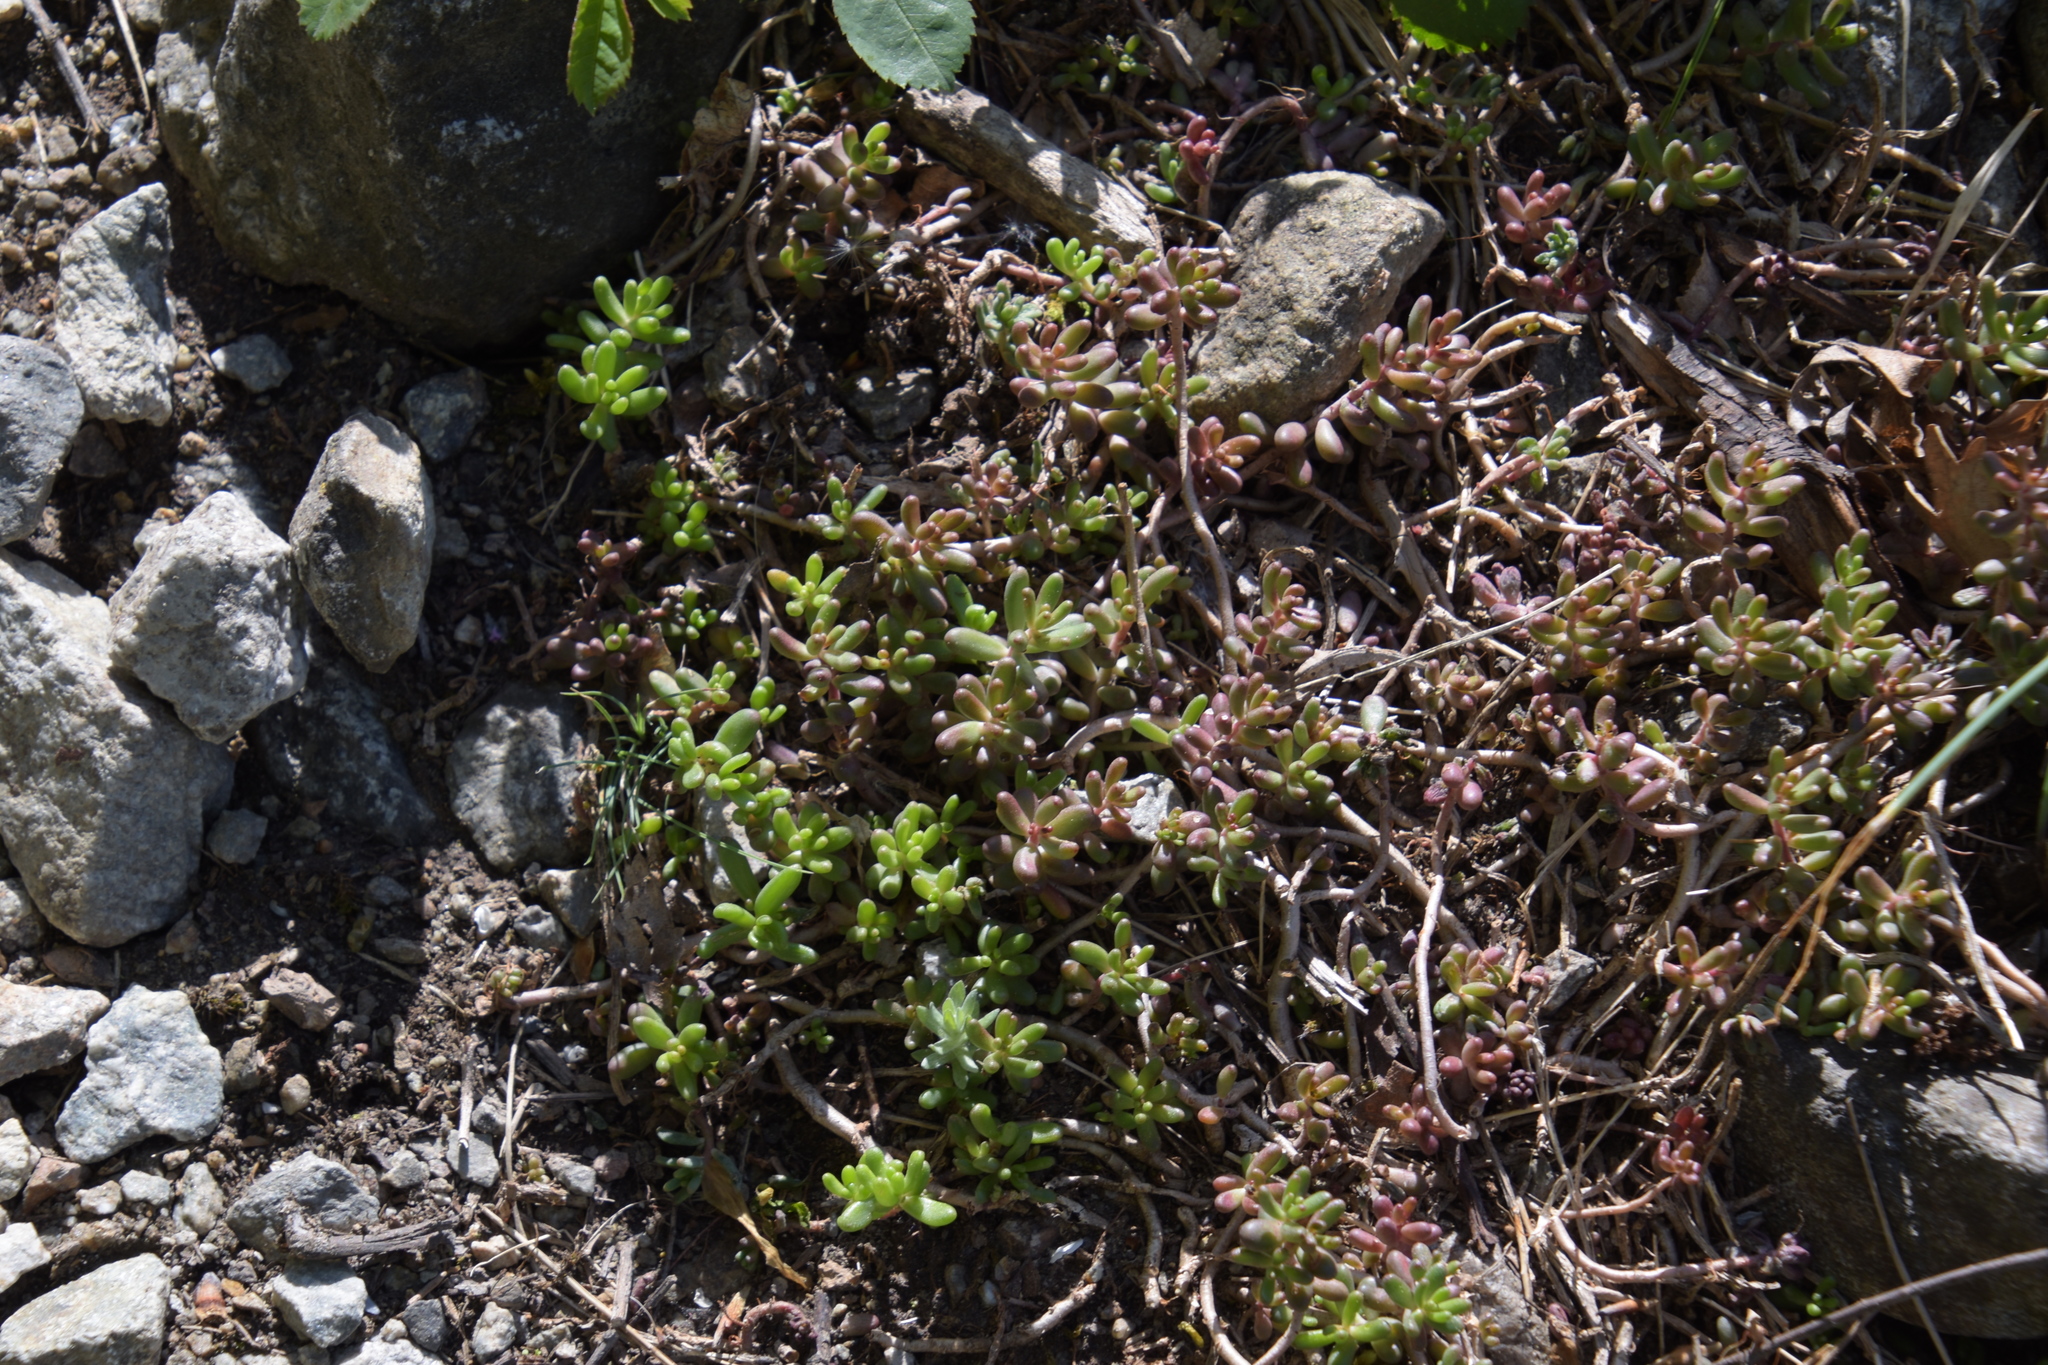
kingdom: Plantae
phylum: Tracheophyta
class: Magnoliopsida
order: Saxifragales
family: Crassulaceae
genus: Sedum
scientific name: Sedum album
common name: White stonecrop
